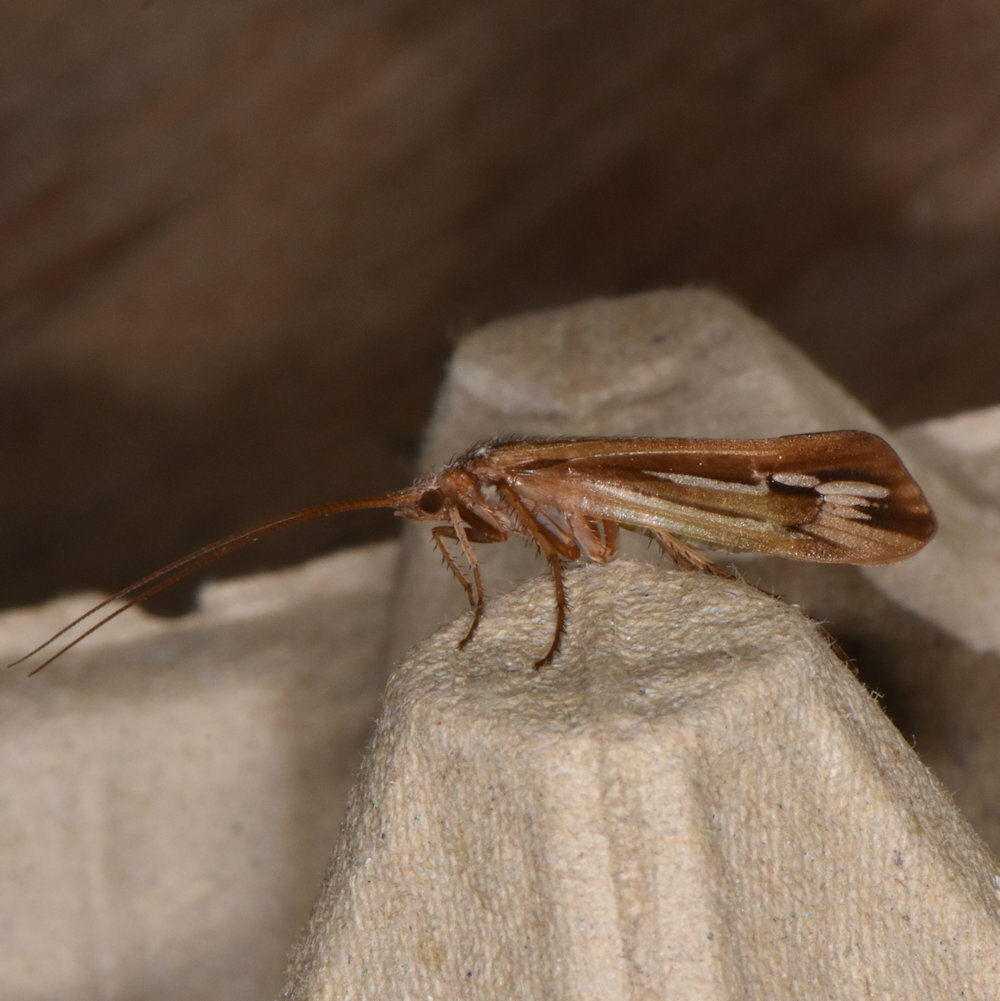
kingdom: Animalia
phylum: Arthropoda
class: Insecta
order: Trichoptera
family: Limnephilidae
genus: Limnephilus
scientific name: Limnephilus ornatus
